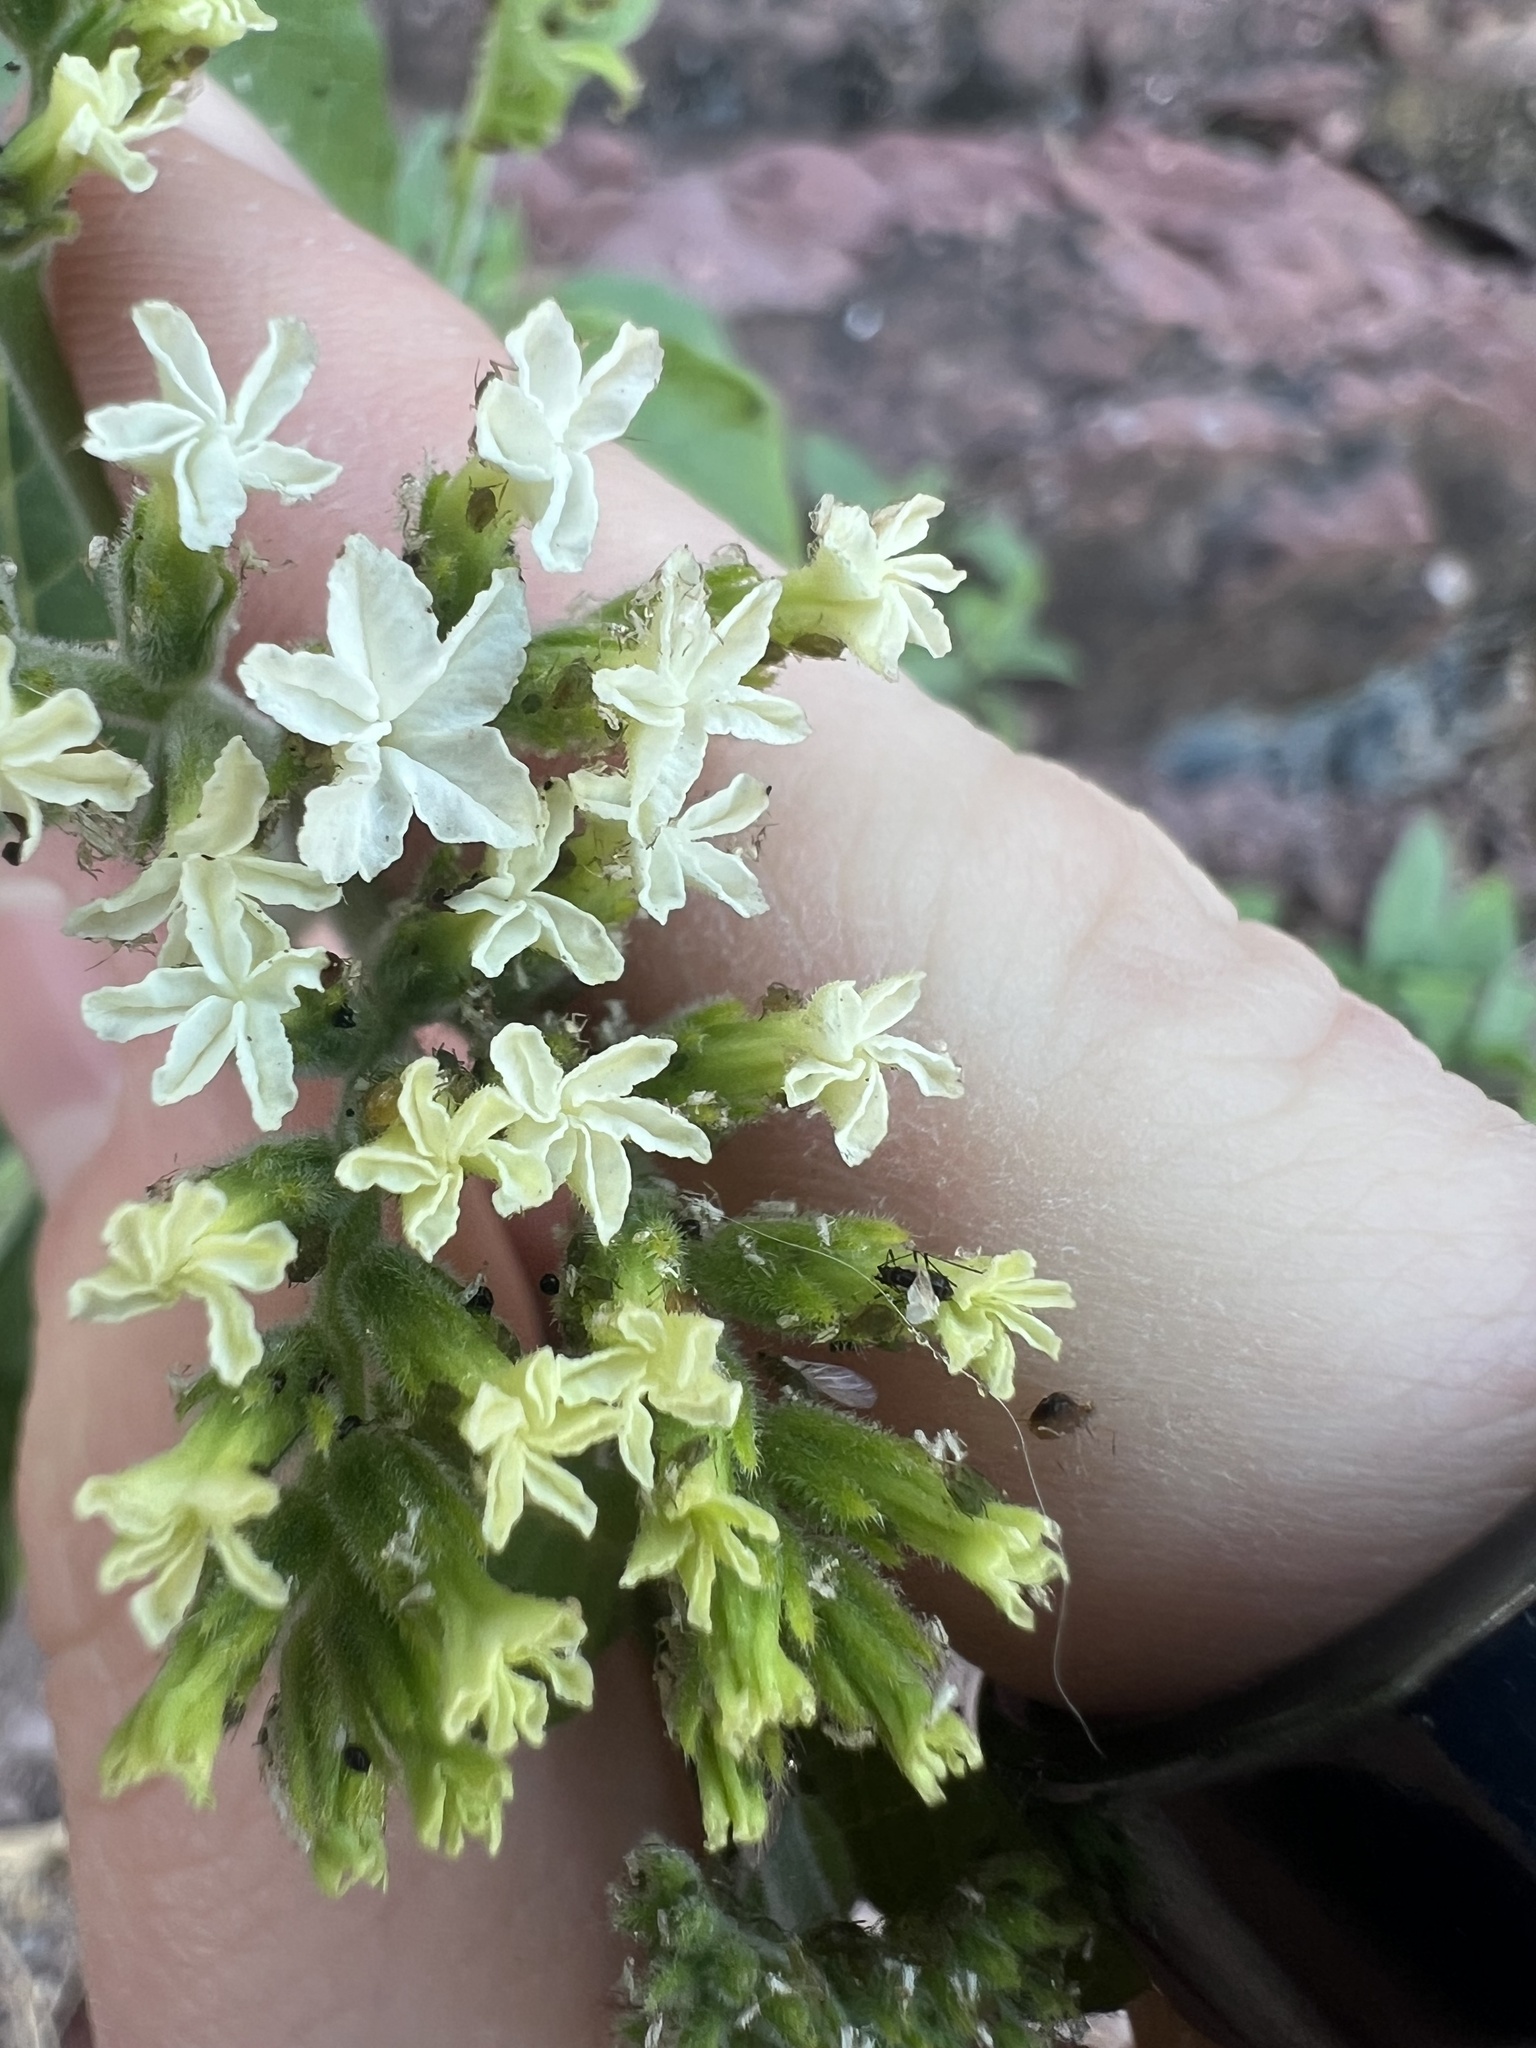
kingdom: Plantae
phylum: Tracheophyta
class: Magnoliopsida
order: Boraginales
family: Heliotropiaceae
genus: Tournefortia
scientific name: Tournefortia mutabilis
